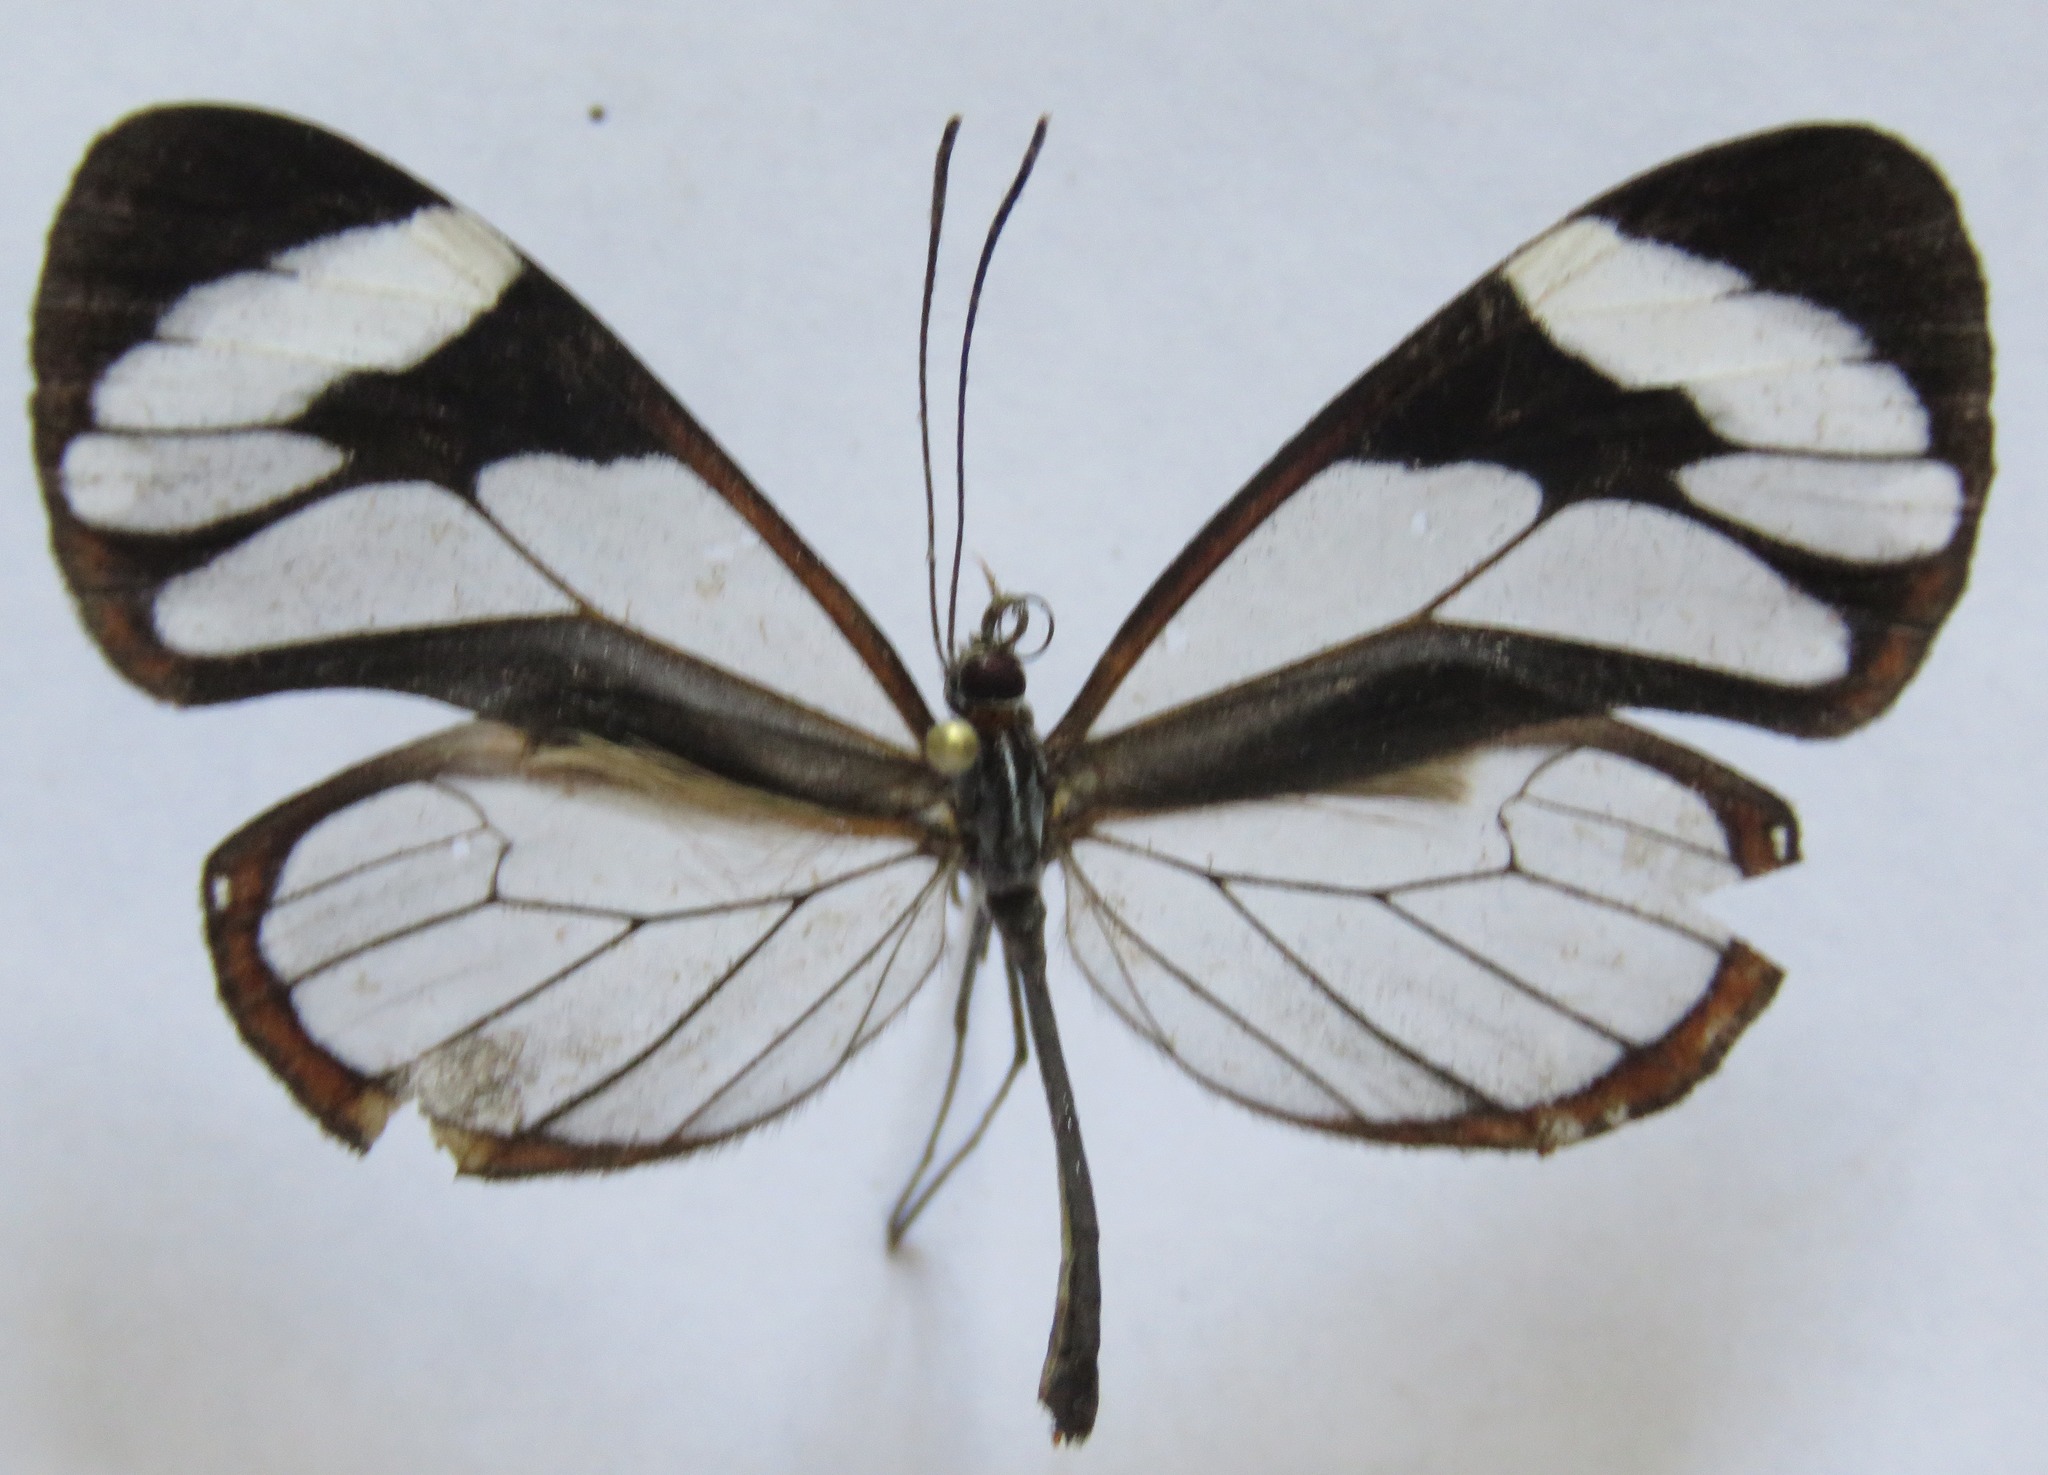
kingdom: Animalia
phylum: Arthropoda
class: Insecta
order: Lepidoptera
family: Nymphalidae
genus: Ithomia
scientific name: Ithomia patilla
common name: Patilla clearwing
